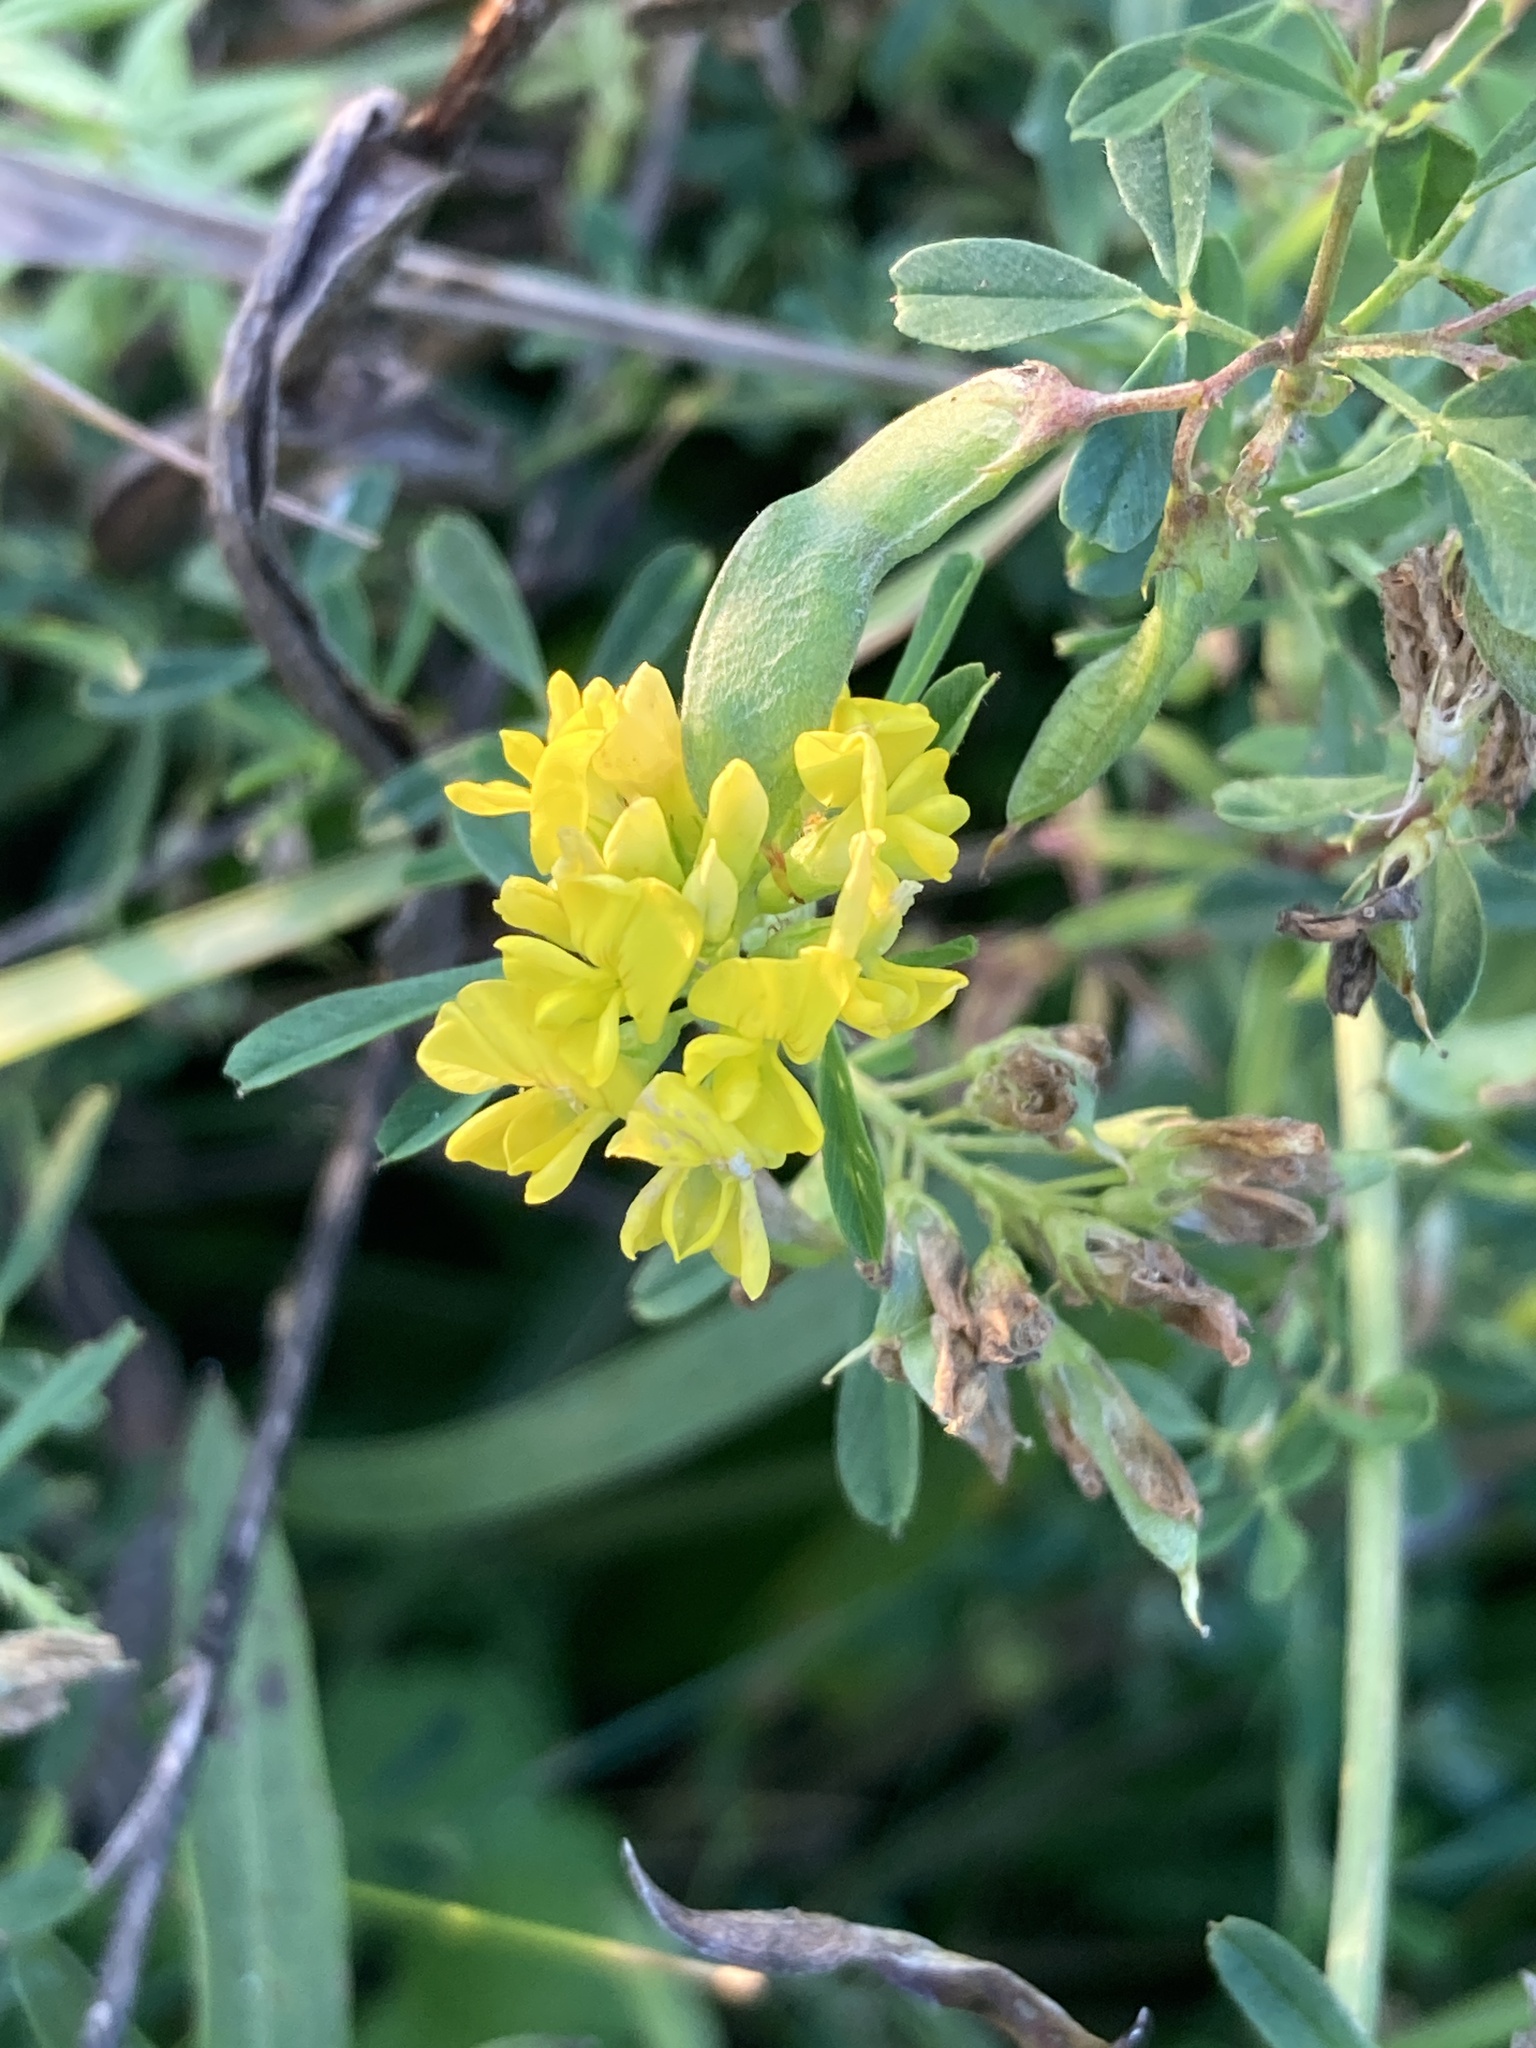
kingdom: Plantae
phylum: Tracheophyta
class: Magnoliopsida
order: Fabales
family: Fabaceae
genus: Medicago
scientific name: Medicago falcata
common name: Sickle medick
